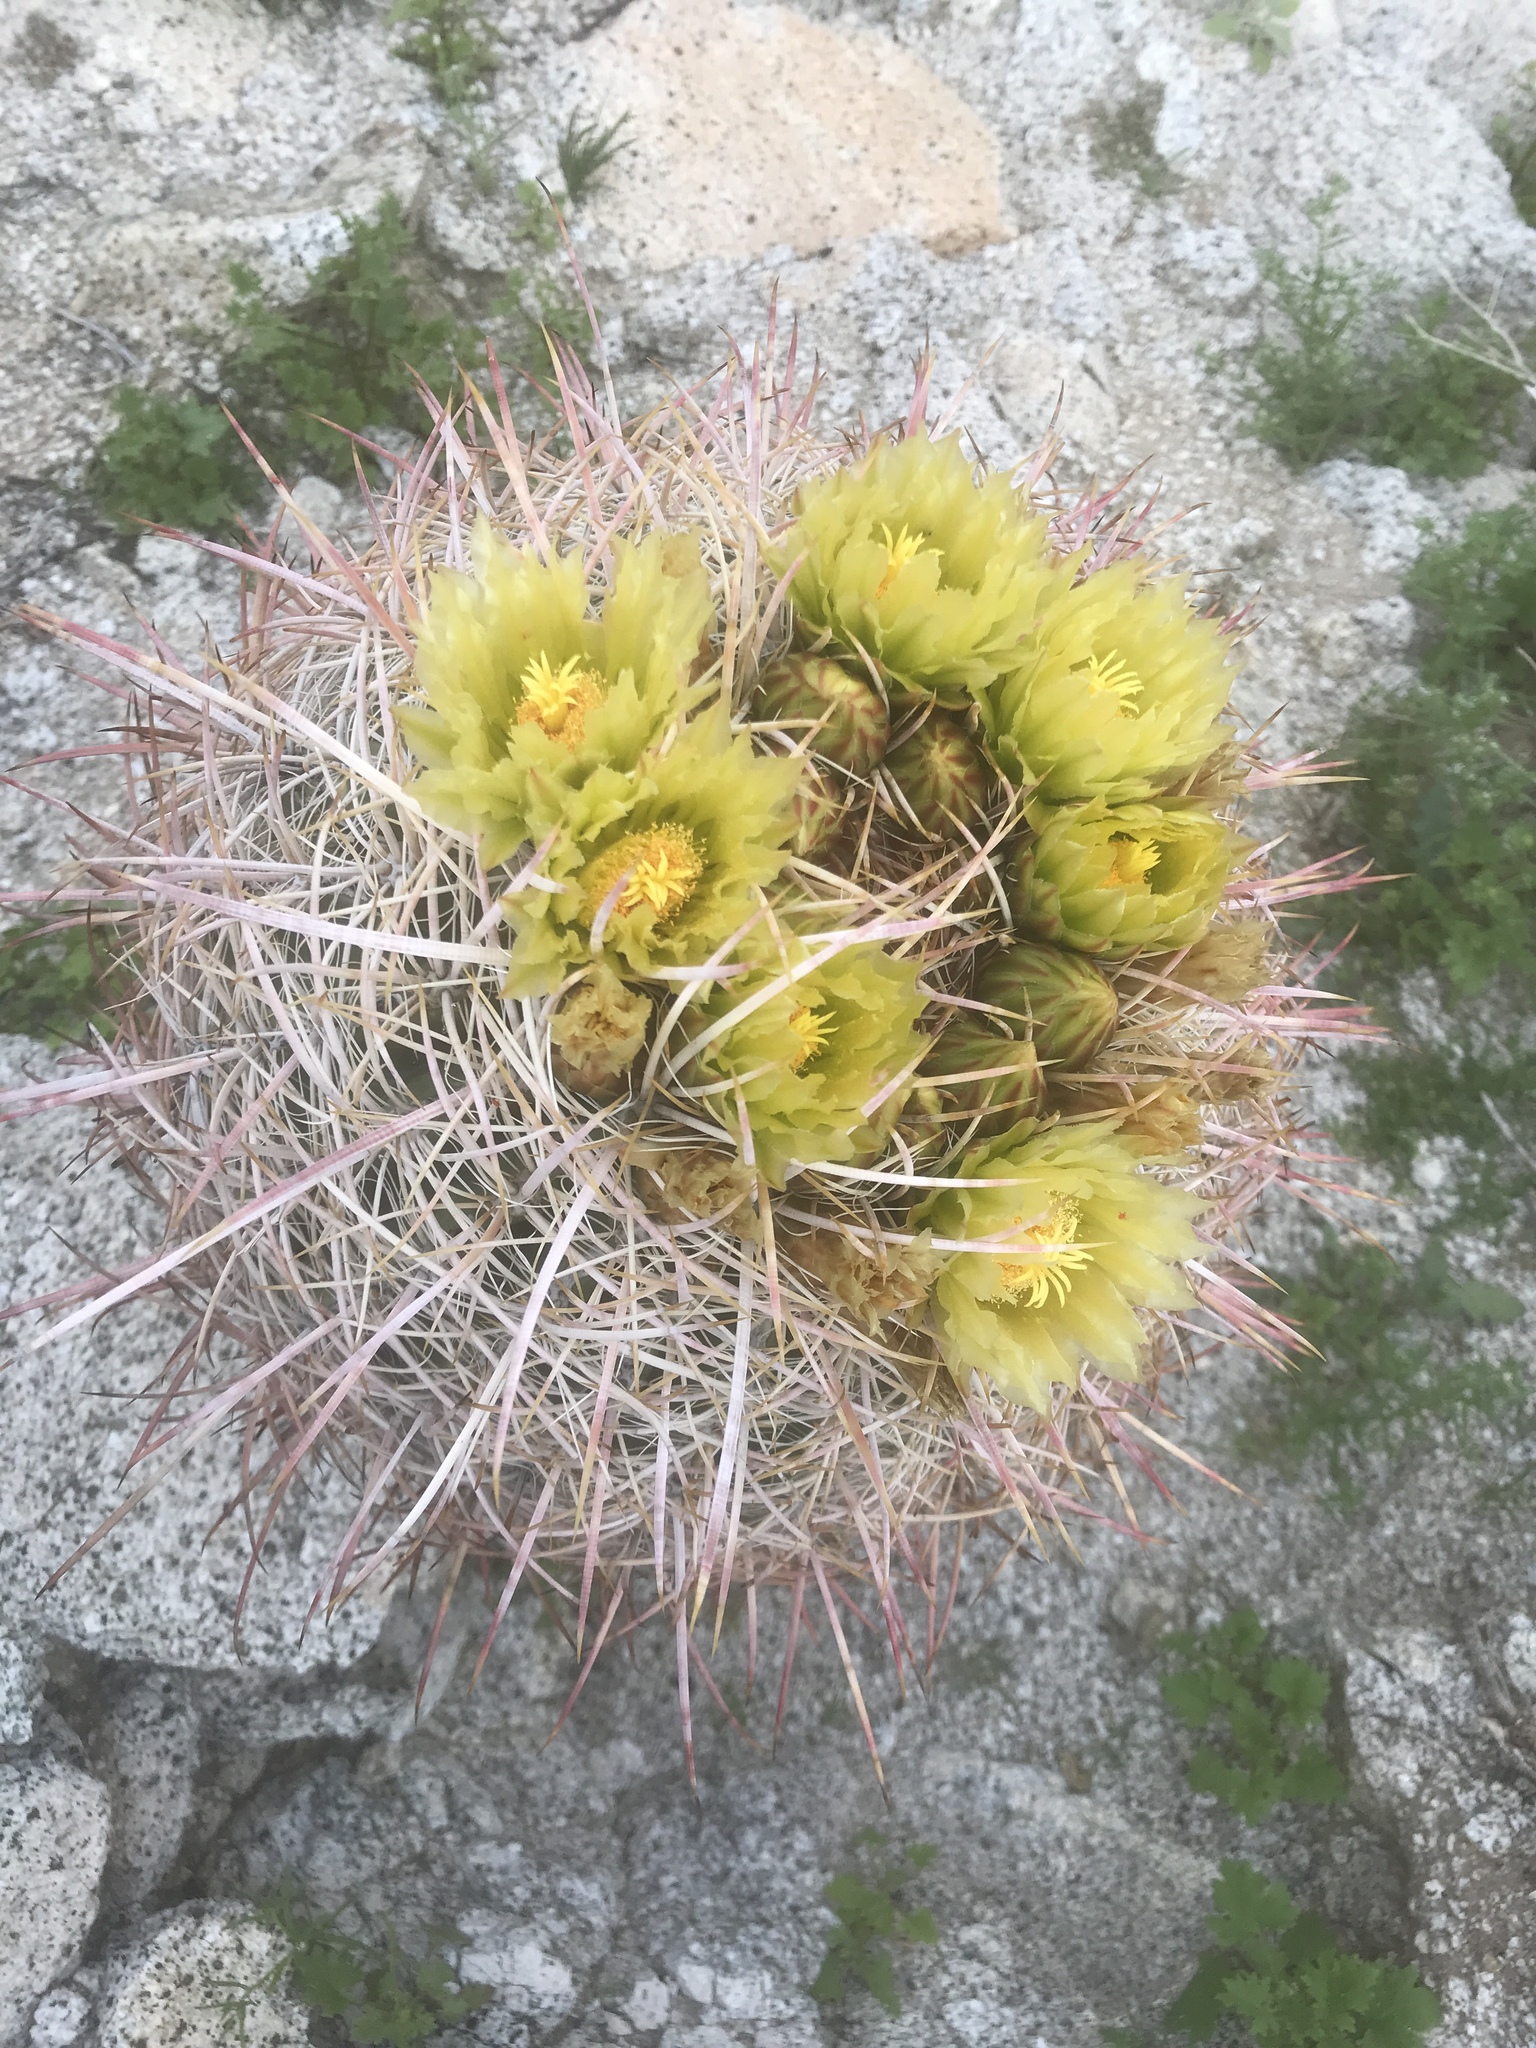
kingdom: Plantae
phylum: Tracheophyta
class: Magnoliopsida
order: Caryophyllales
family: Cactaceae
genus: Ferocactus
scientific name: Ferocactus cylindraceus
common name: California barrel cactus
